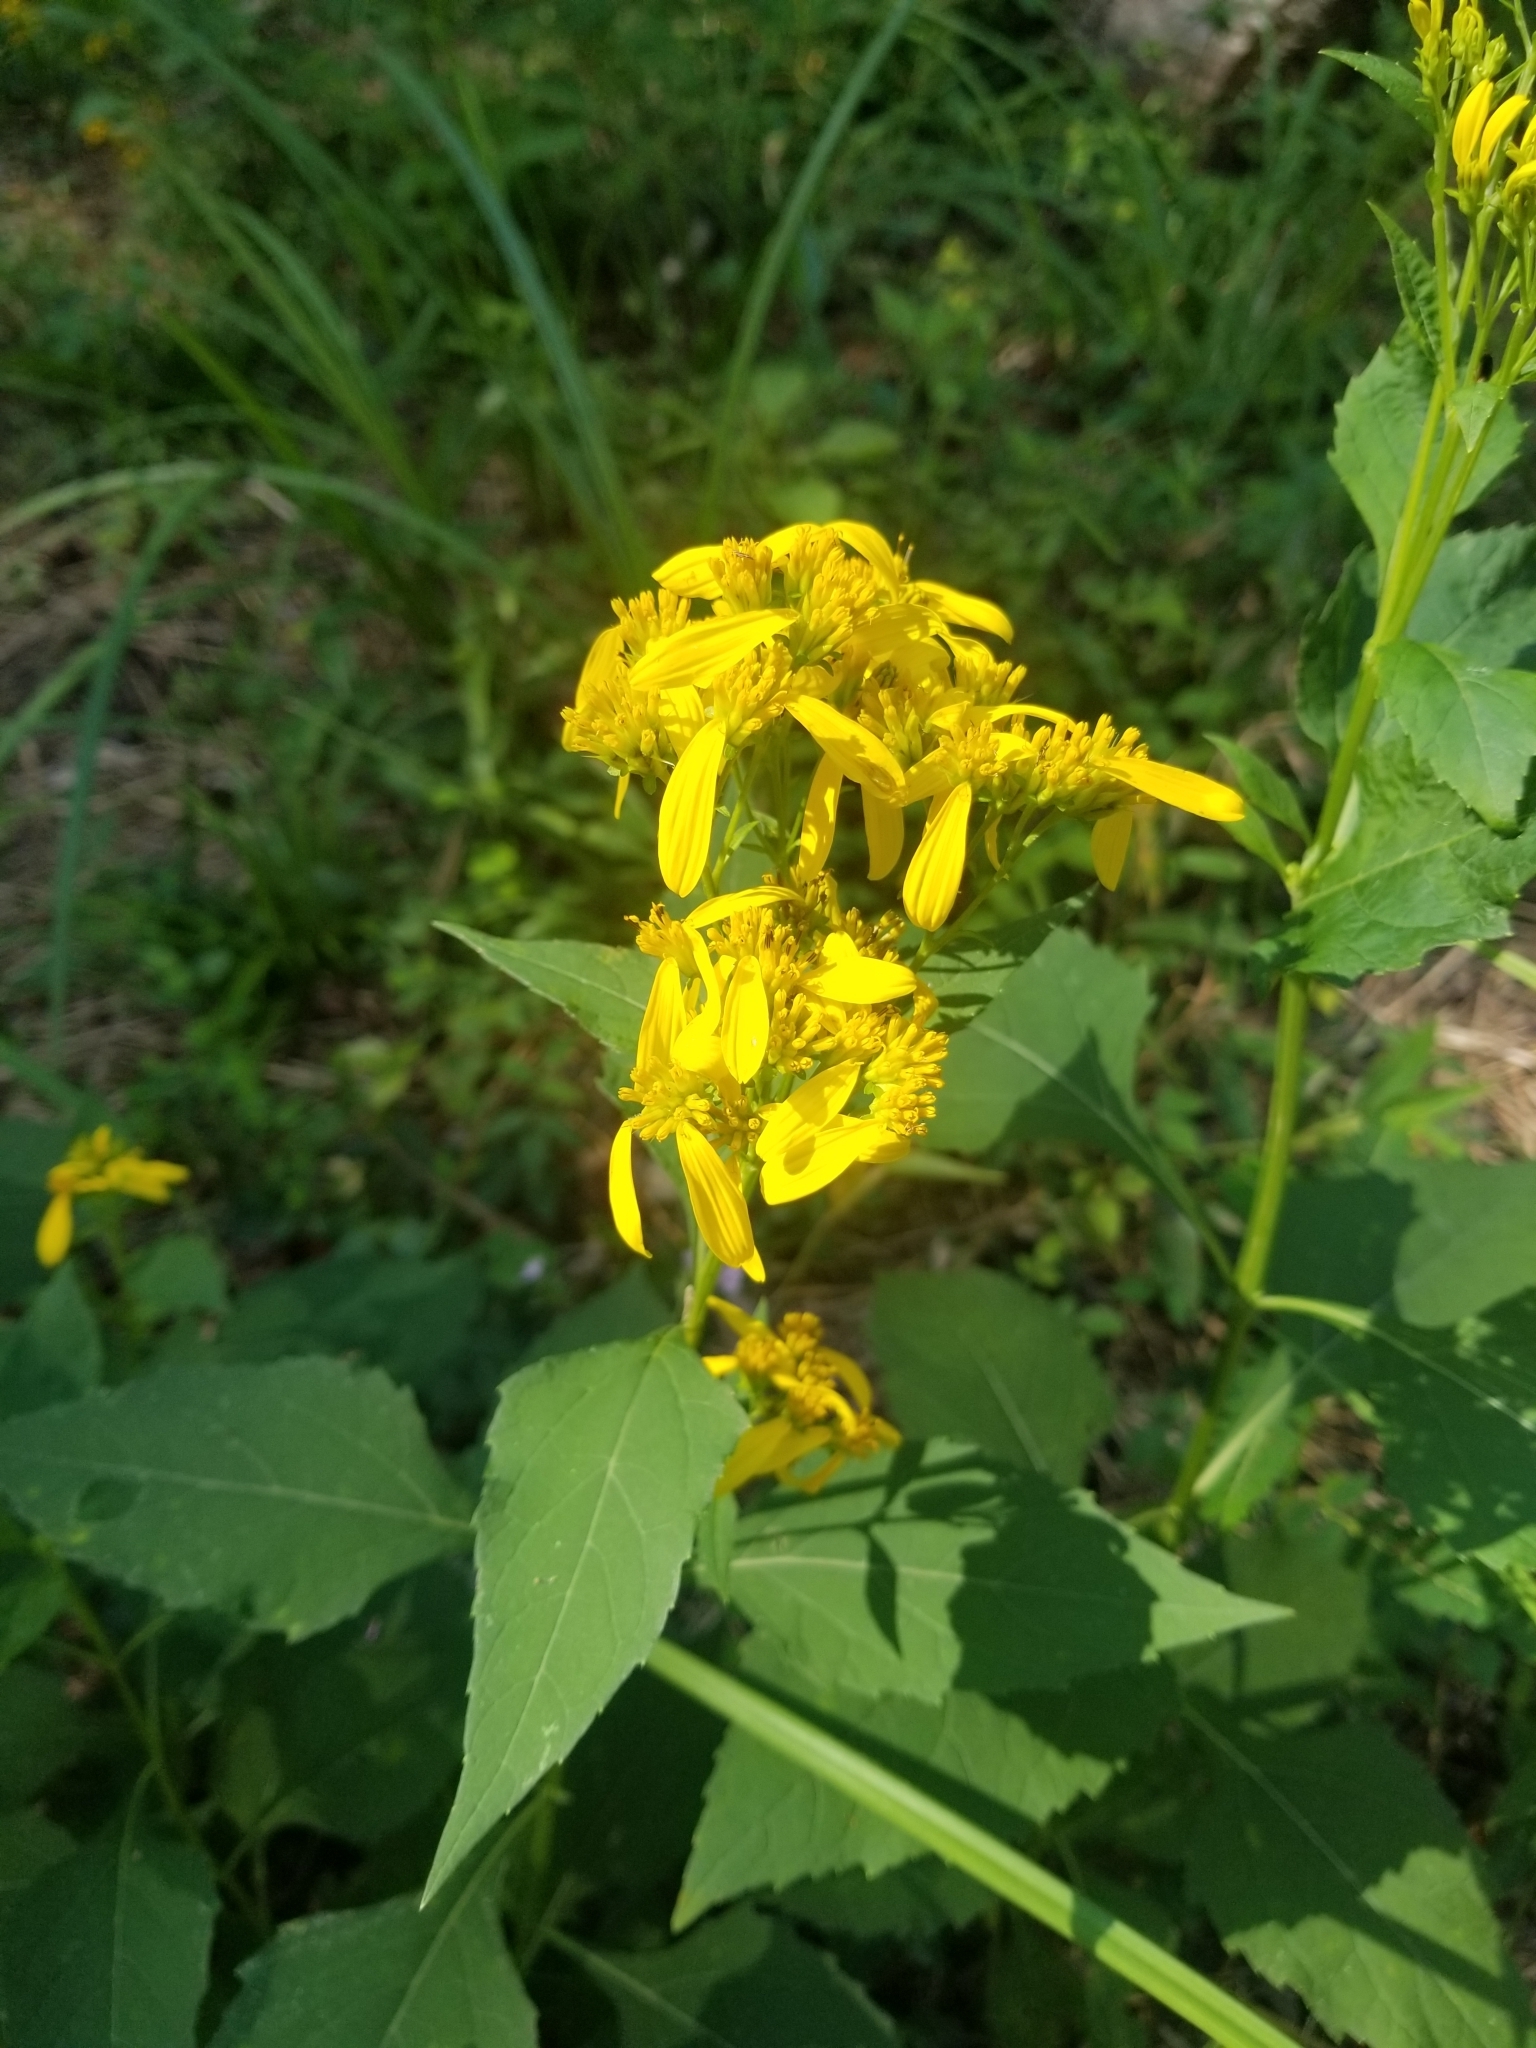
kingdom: Plantae
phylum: Tracheophyta
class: Magnoliopsida
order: Asterales
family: Asteraceae
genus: Verbesina
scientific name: Verbesina occidentalis
